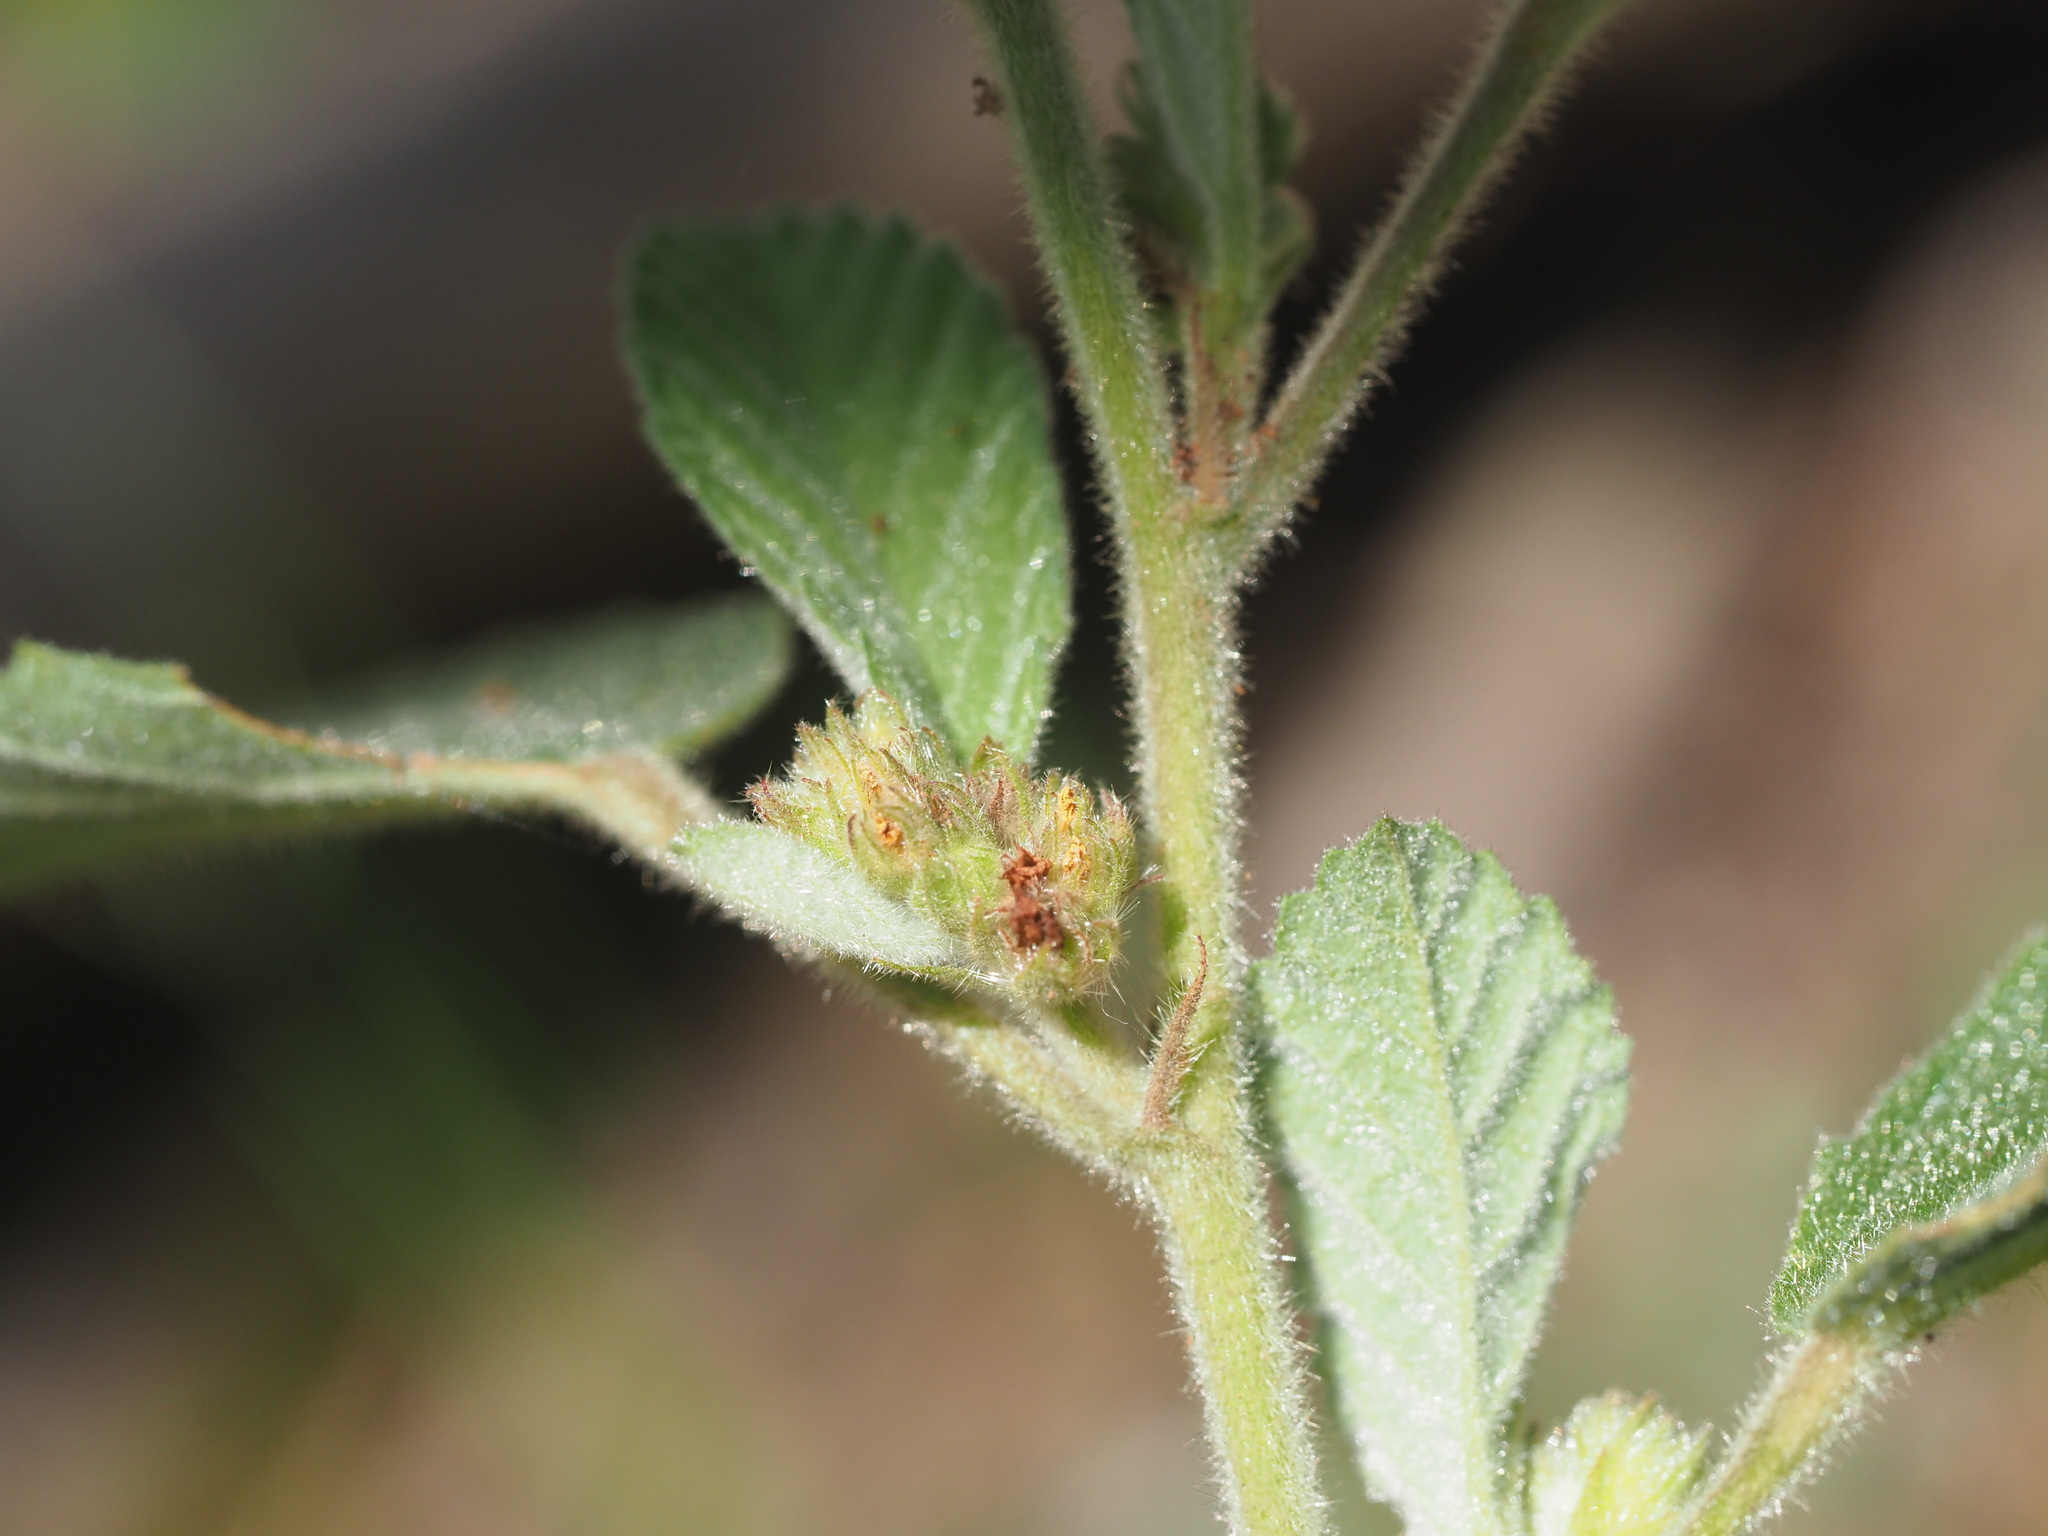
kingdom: Plantae
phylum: Tracheophyta
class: Magnoliopsida
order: Malvales
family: Malvaceae
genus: Waltheria
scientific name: Waltheria indica
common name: Leather-coat
